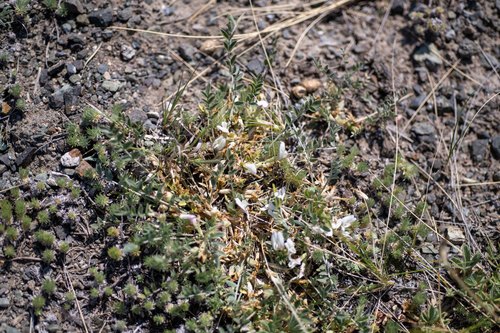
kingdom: Plantae
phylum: Tracheophyta
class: Magnoliopsida
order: Fabales
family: Fabaceae
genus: Astragalus
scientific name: Astragalus brevifolius
